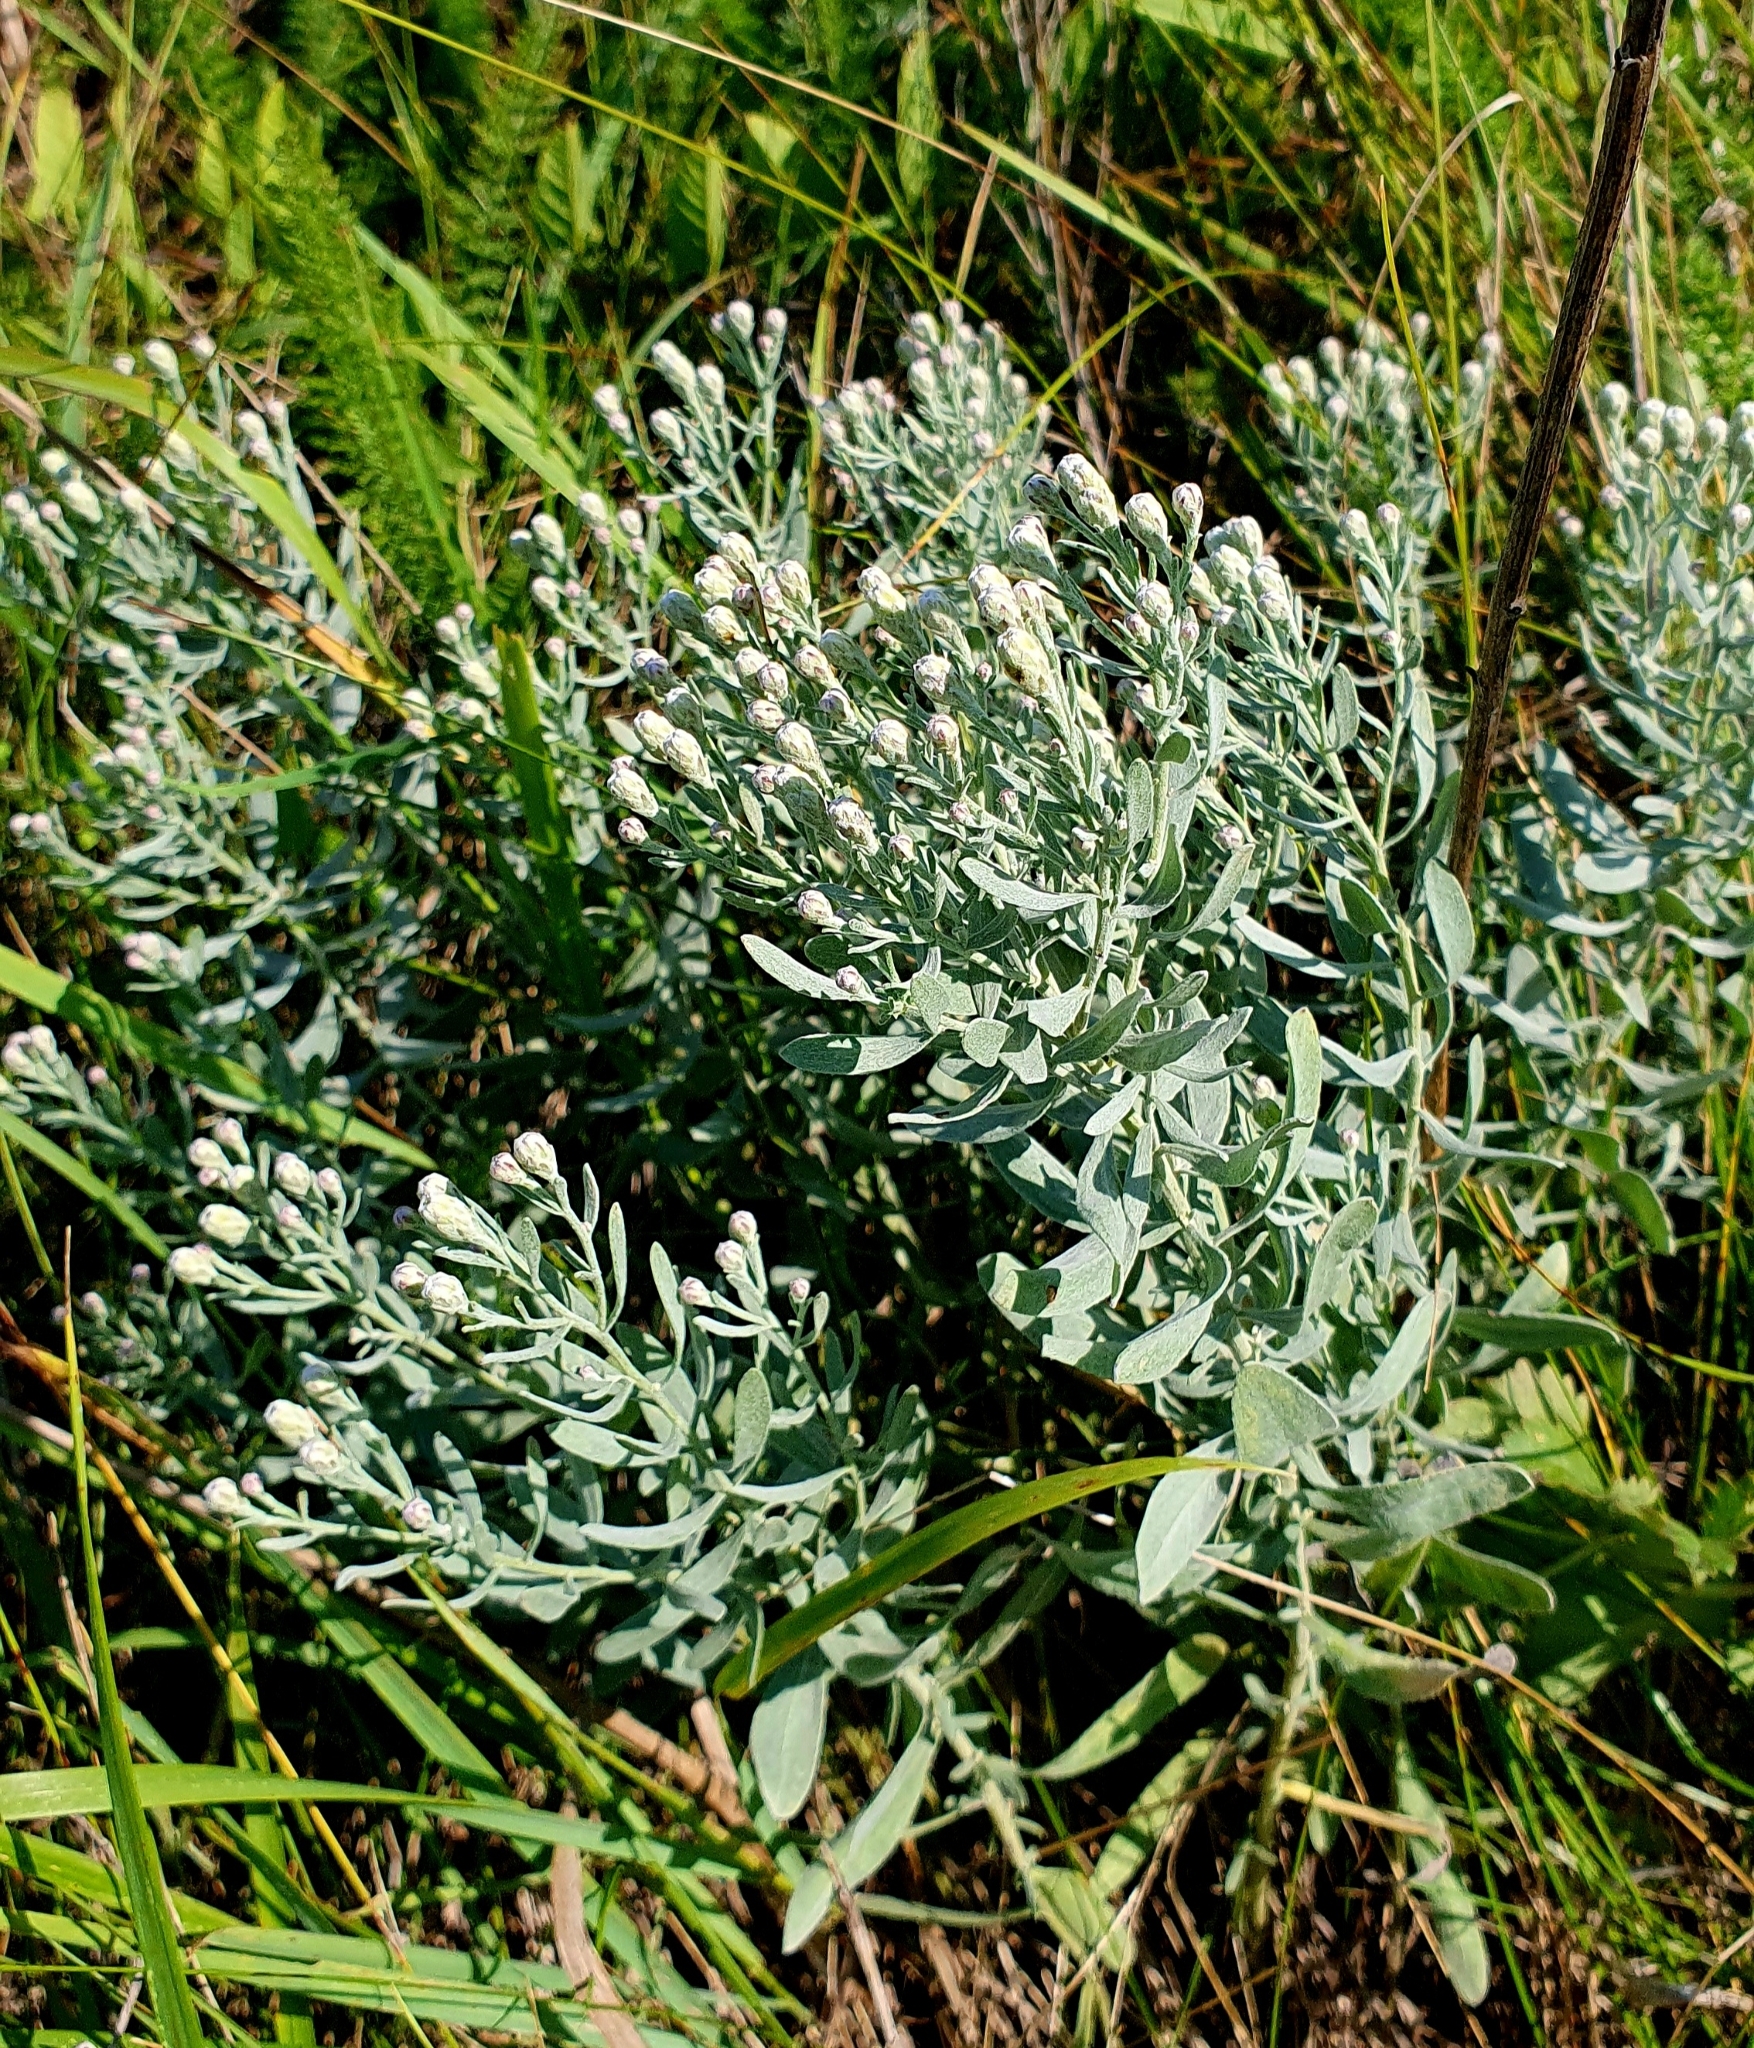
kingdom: Plantae
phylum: Tracheophyta
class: Magnoliopsida
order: Asterales
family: Asteraceae
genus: Galatella
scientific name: Galatella villosa
